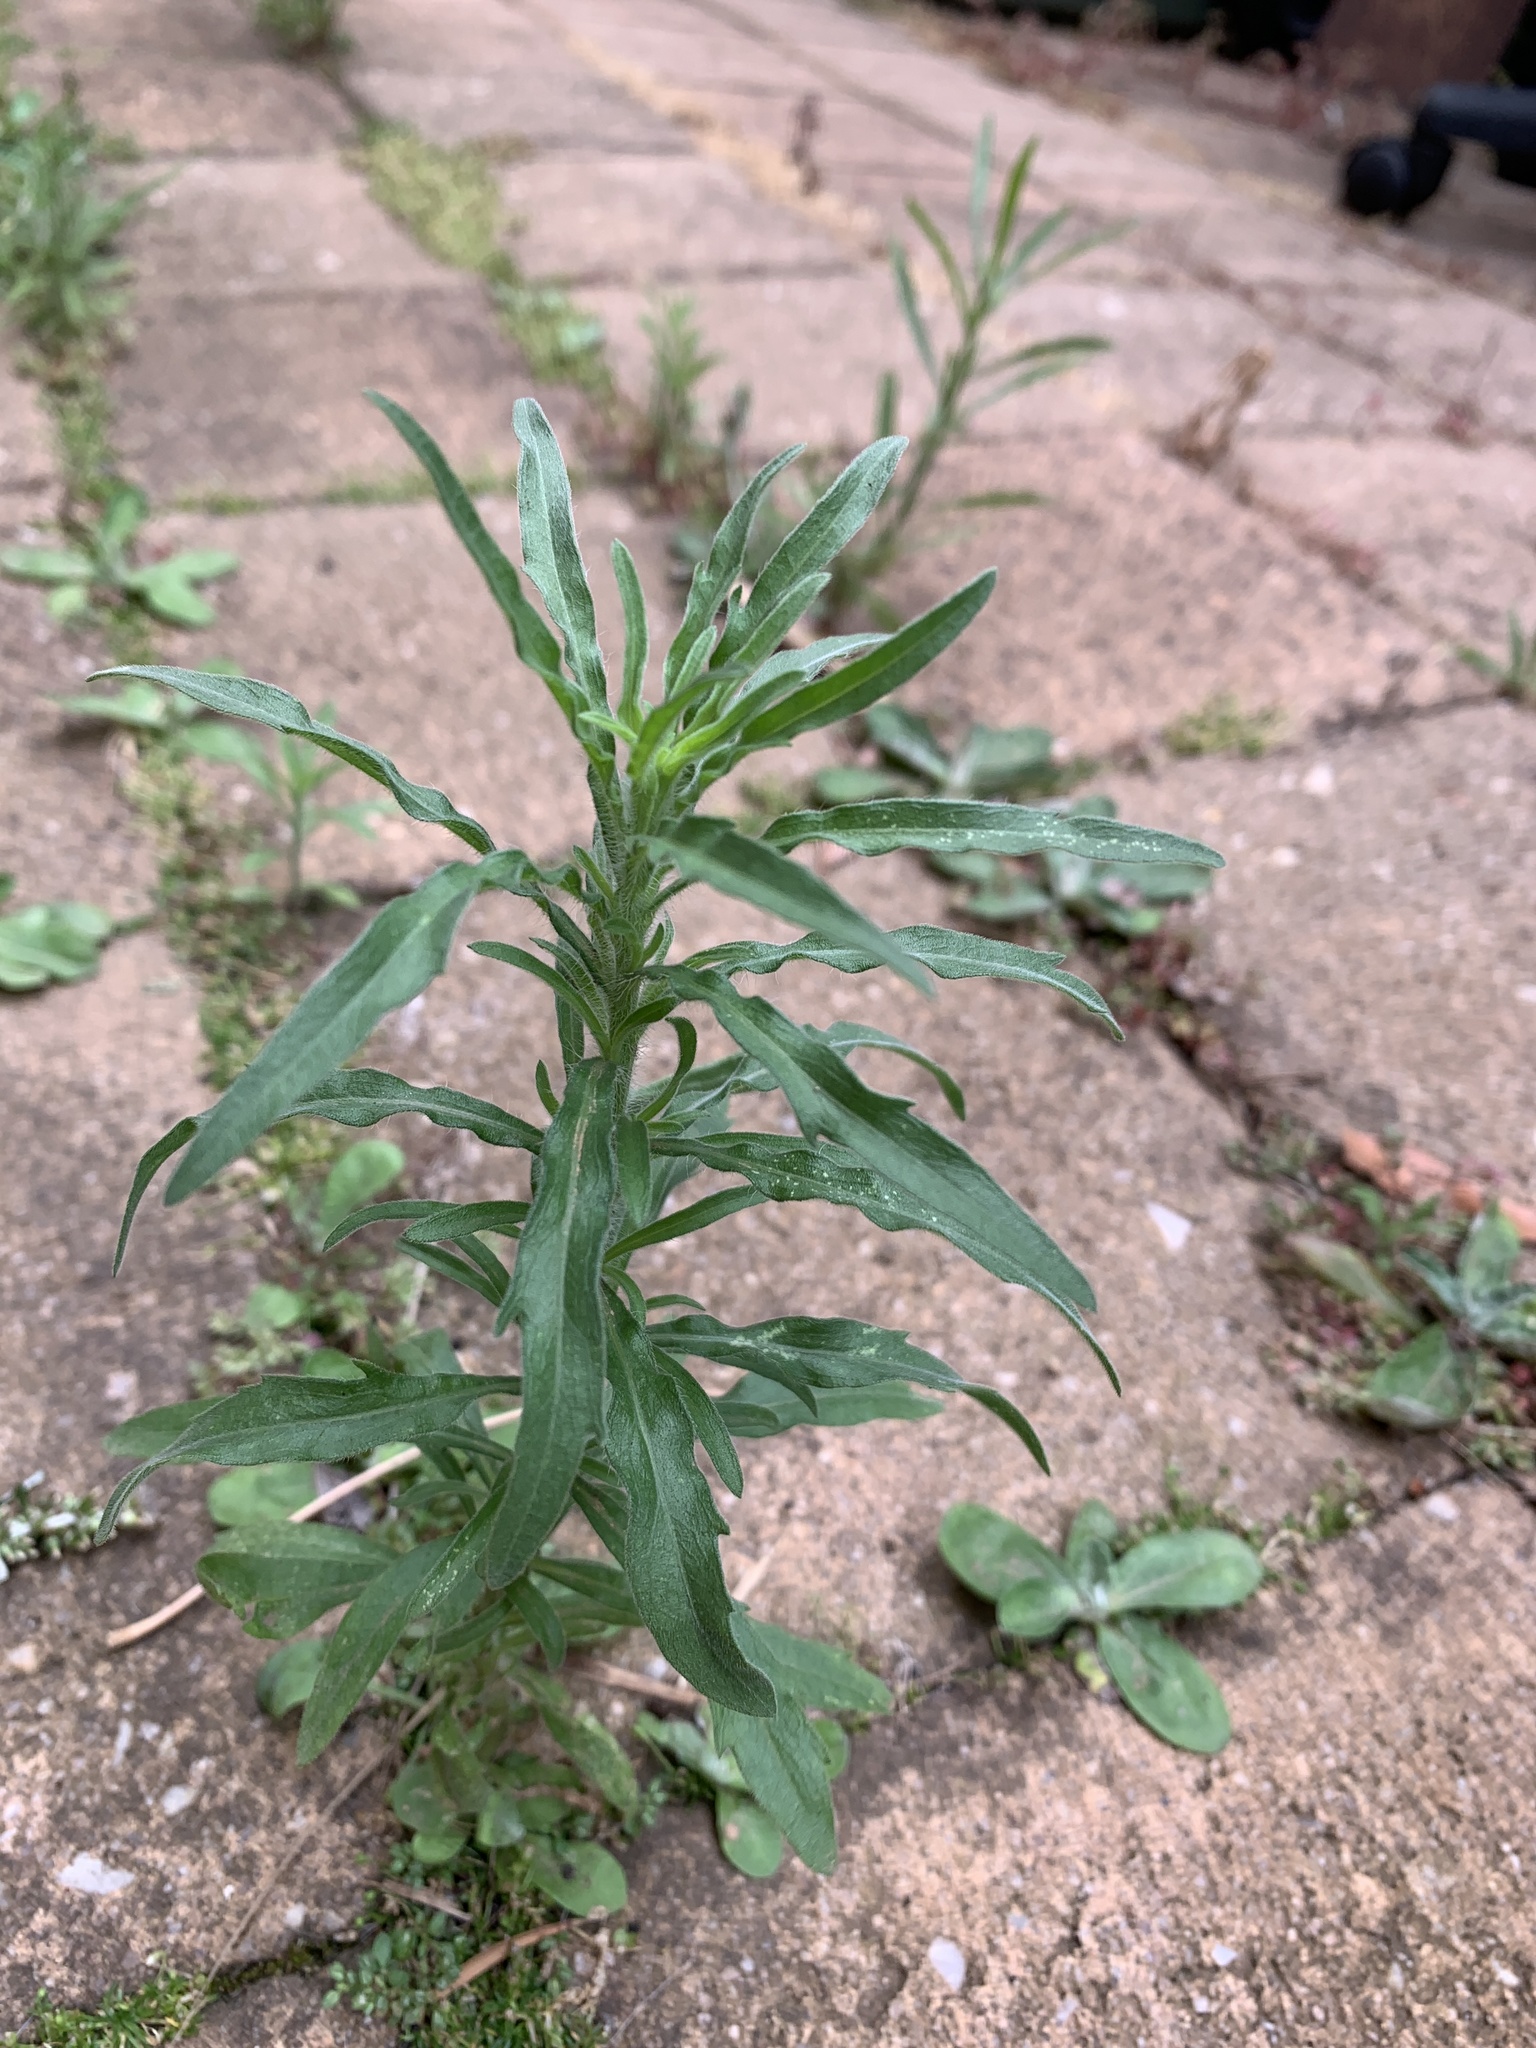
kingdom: Plantae
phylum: Tracheophyta
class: Magnoliopsida
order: Asterales
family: Asteraceae
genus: Erigeron
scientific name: Erigeron bonariensis
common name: Argentine fleabane
